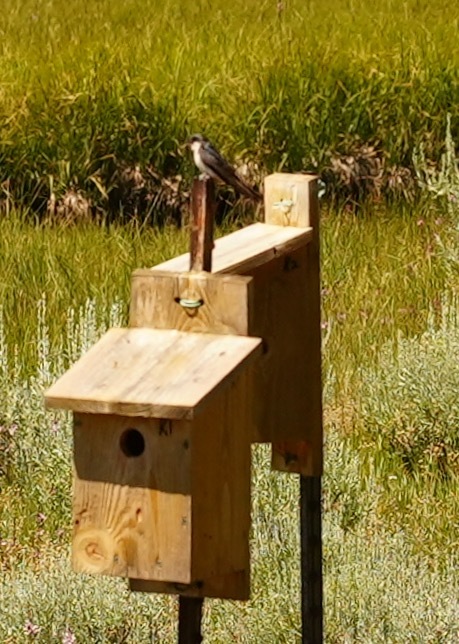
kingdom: Animalia
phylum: Chordata
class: Aves
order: Passeriformes
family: Hirundinidae
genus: Tachycineta
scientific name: Tachycineta bicolor
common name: Tree swallow
